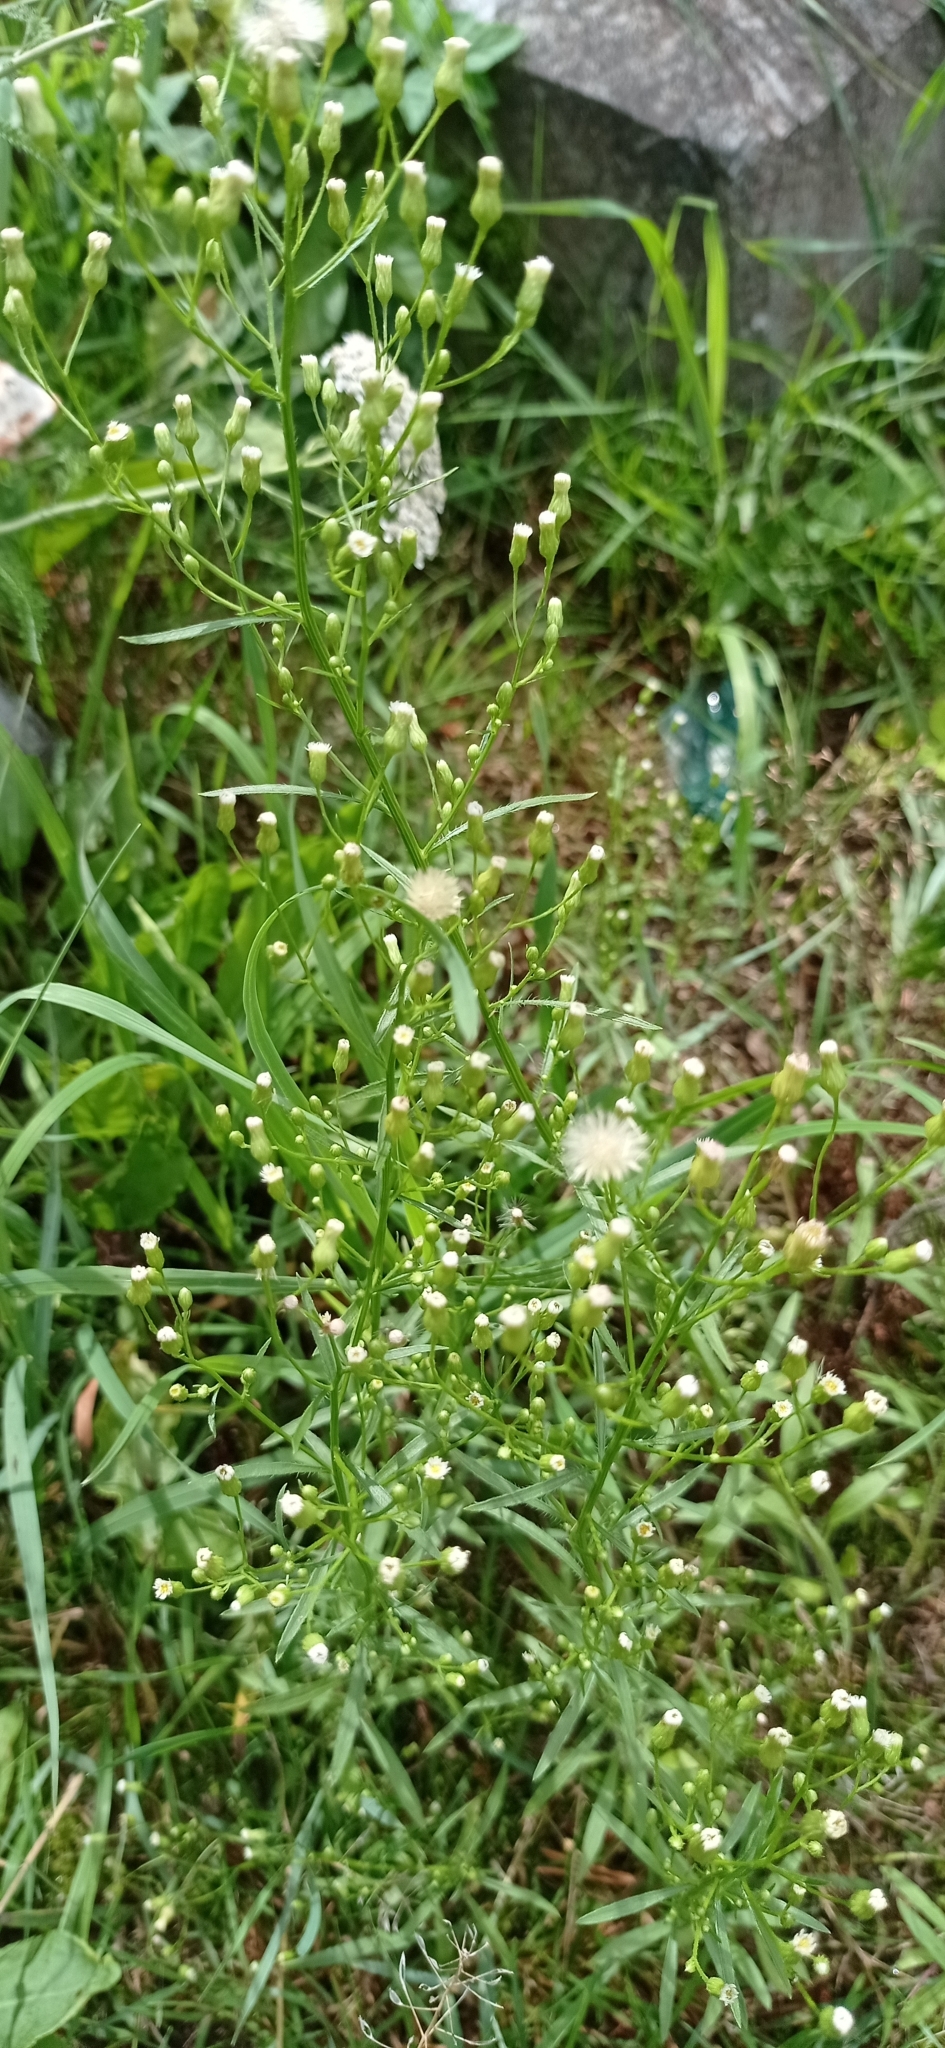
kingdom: Plantae
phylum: Tracheophyta
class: Magnoliopsida
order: Asterales
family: Asteraceae
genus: Erigeron
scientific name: Erigeron canadensis
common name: Canadian fleabane
